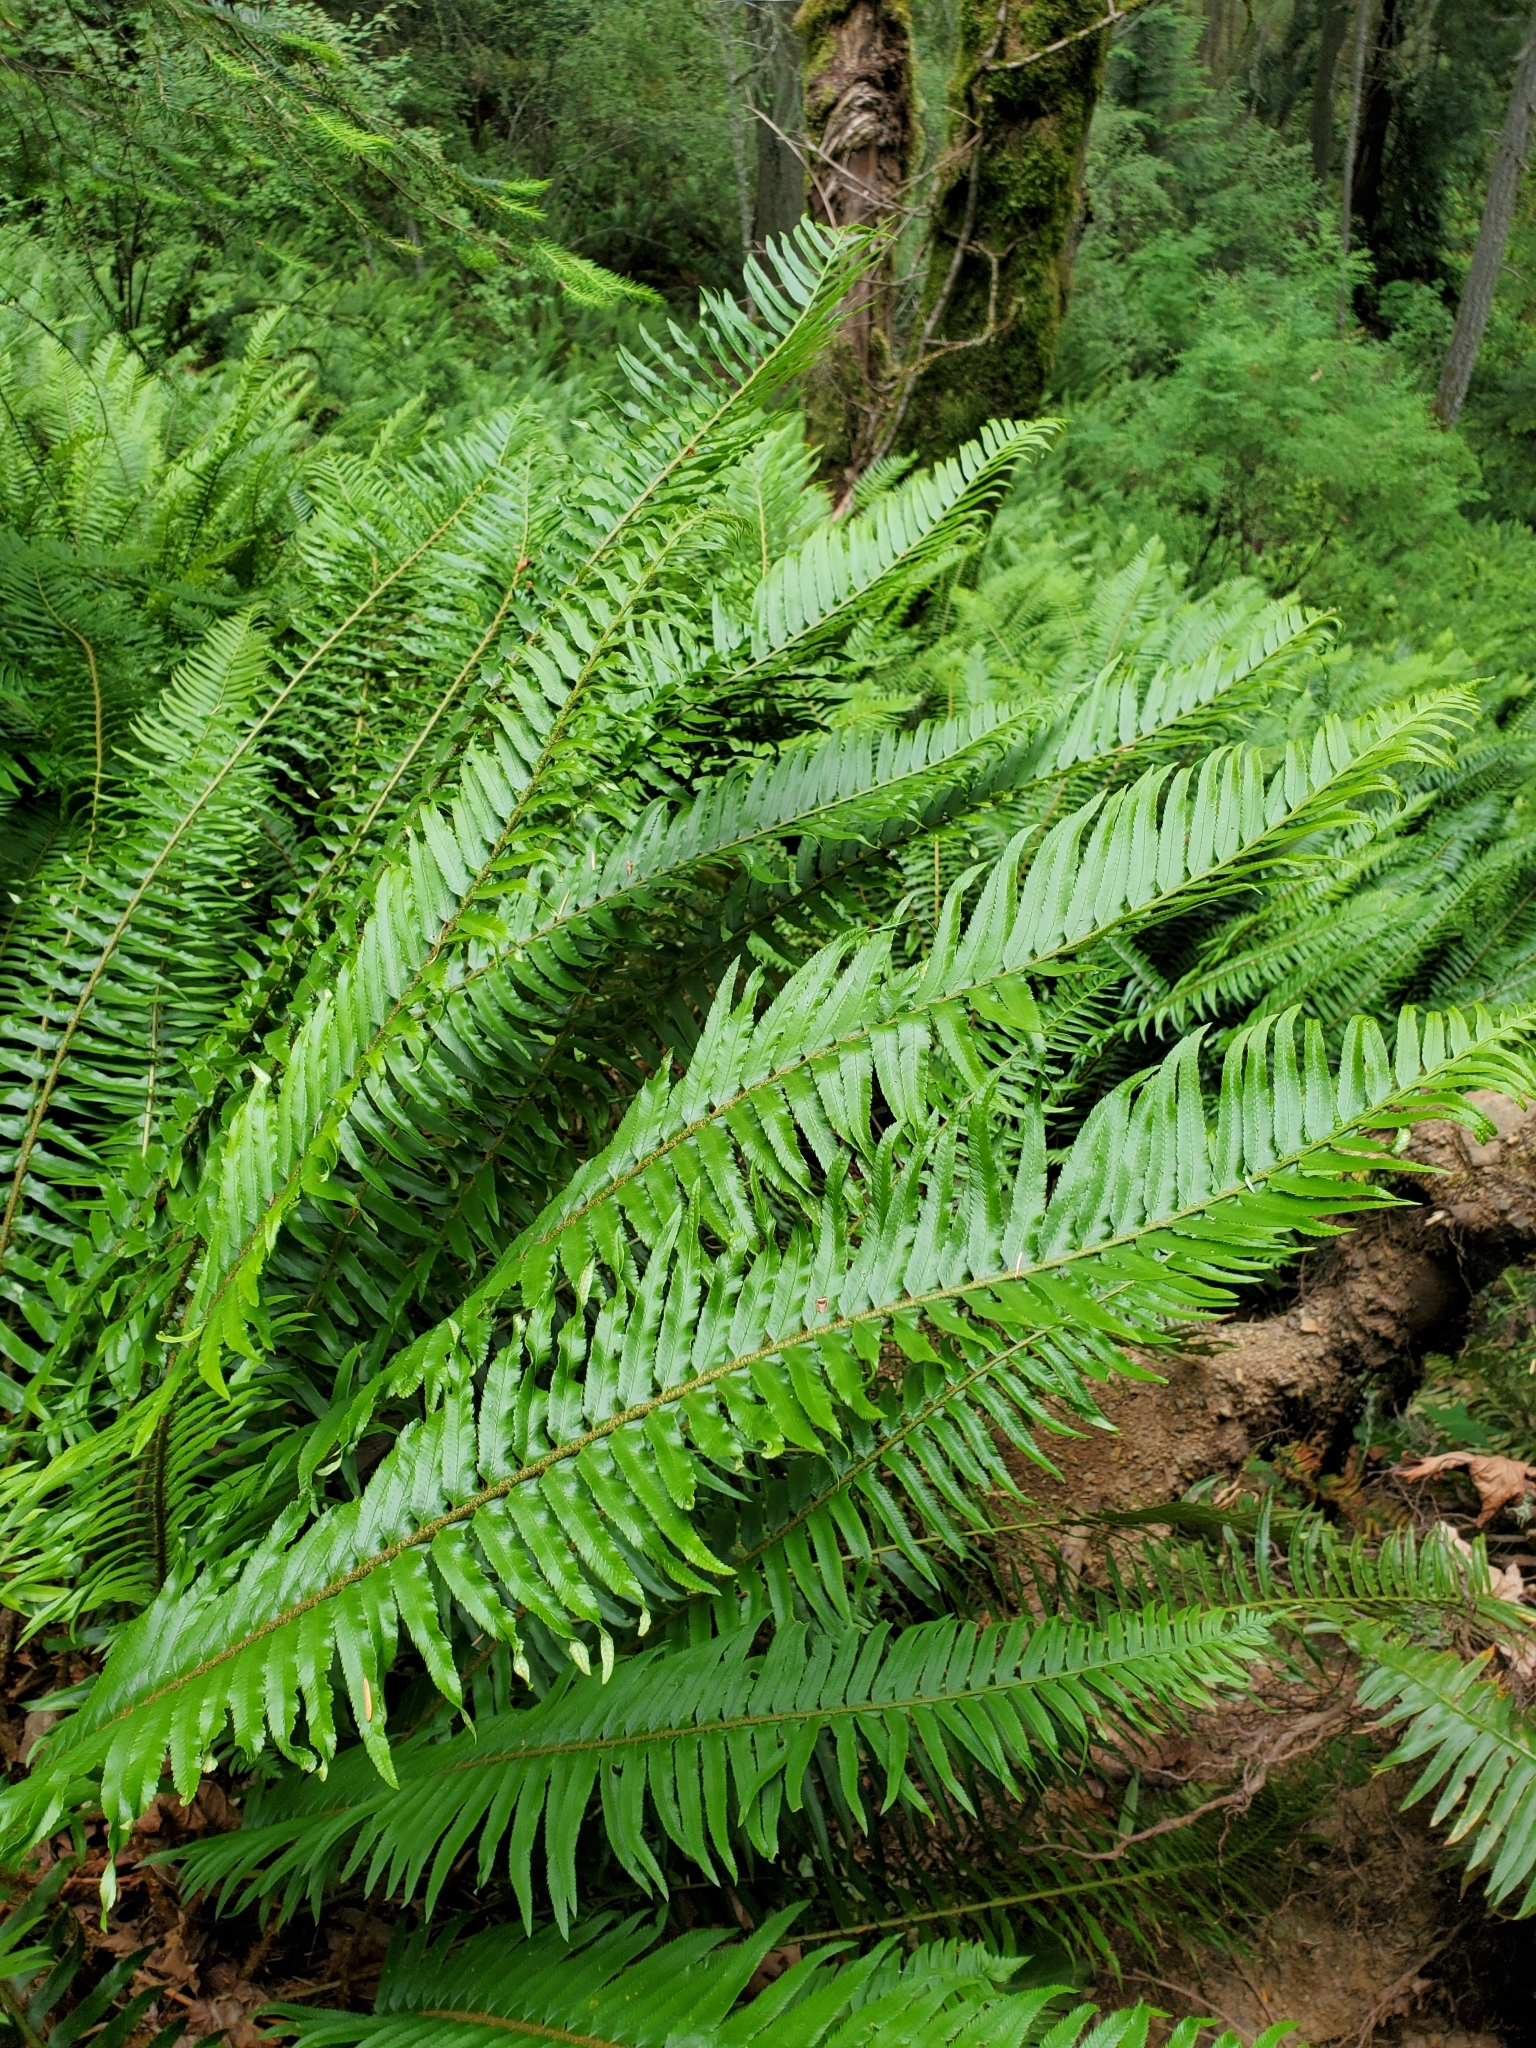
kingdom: Plantae
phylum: Tracheophyta
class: Polypodiopsida
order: Polypodiales
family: Dryopteridaceae
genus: Polystichum
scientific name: Polystichum munitum
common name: Western sword-fern
